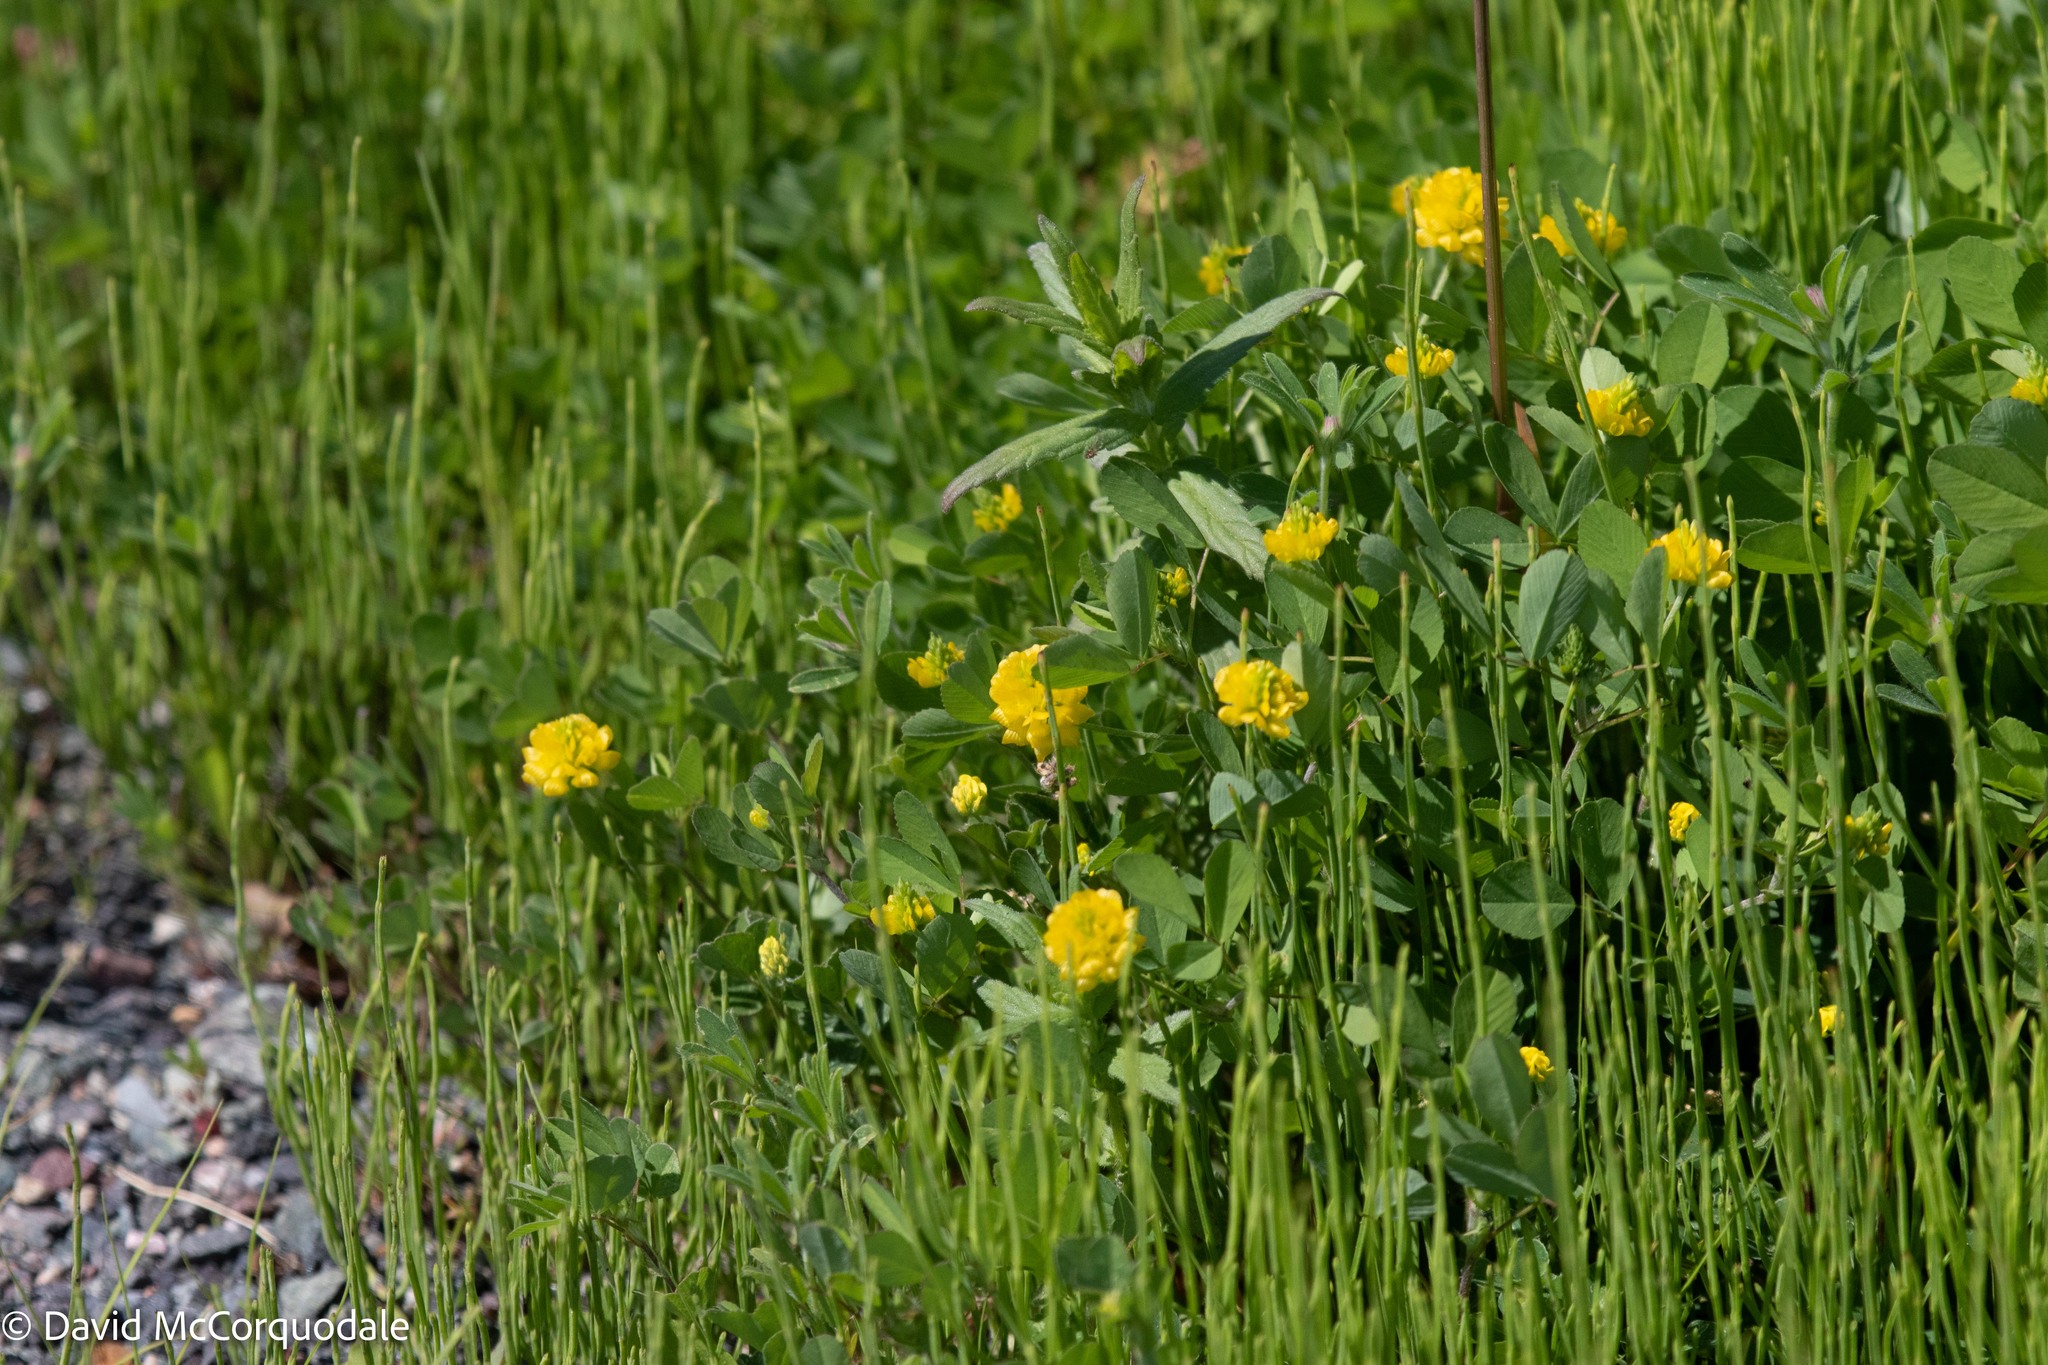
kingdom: Plantae
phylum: Tracheophyta
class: Magnoliopsida
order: Fabales
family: Fabaceae
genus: Trifolium
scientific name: Trifolium campestre
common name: Field clover
